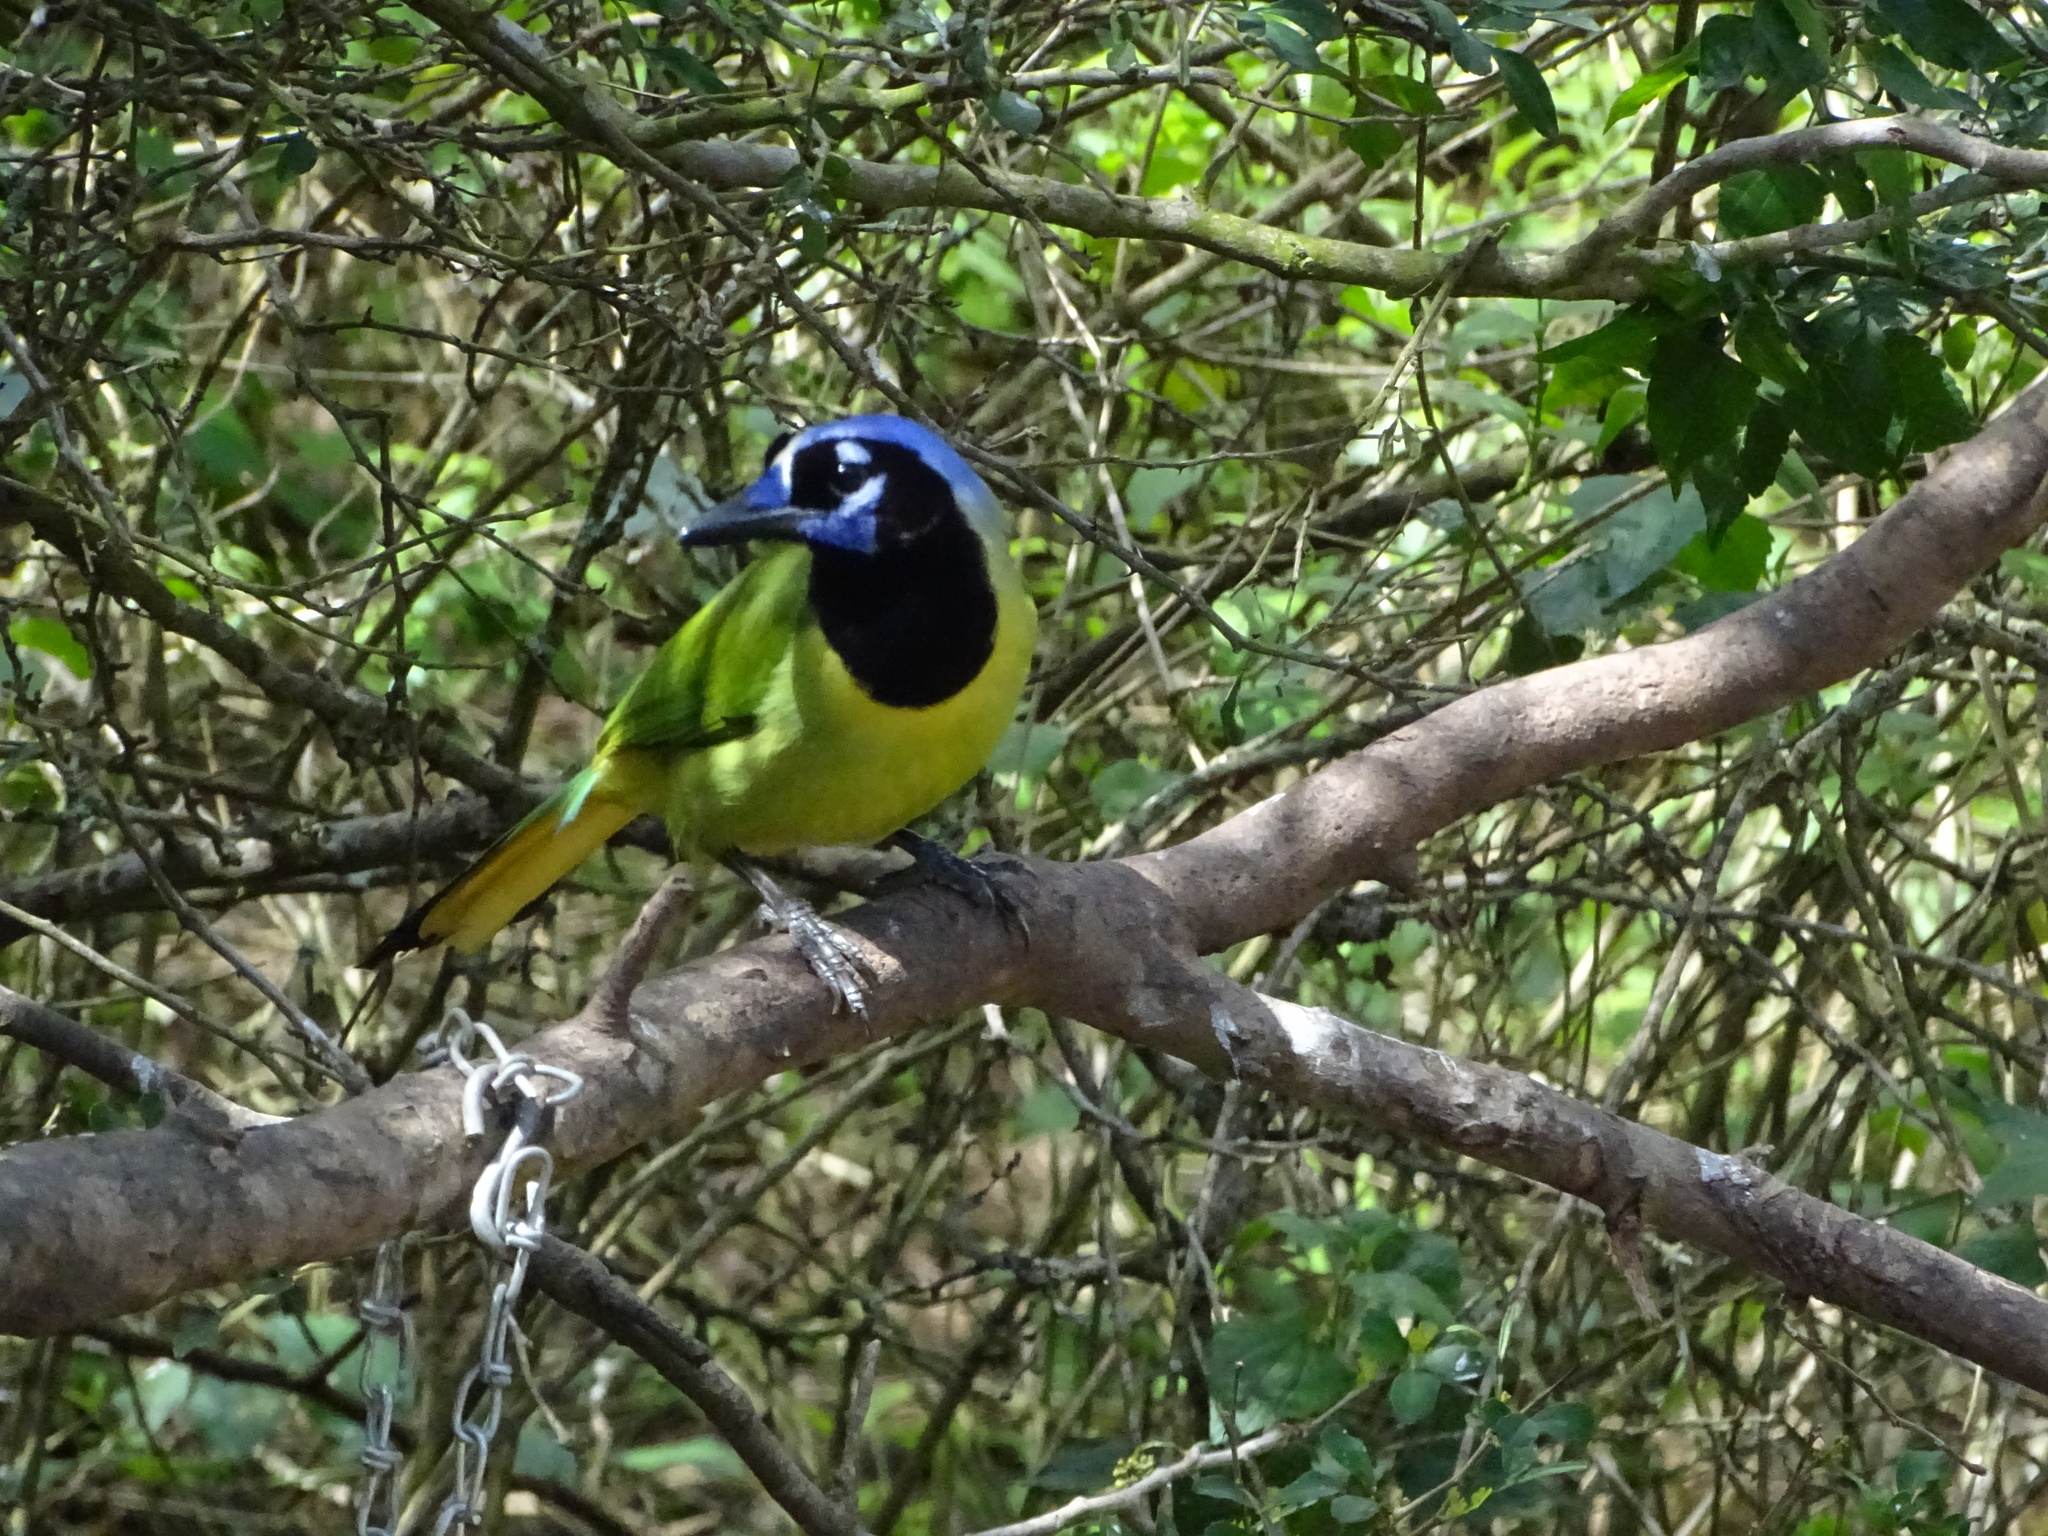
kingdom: Animalia
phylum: Chordata
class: Aves
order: Passeriformes
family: Corvidae
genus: Cyanocorax
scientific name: Cyanocorax yncas
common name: Green jay
